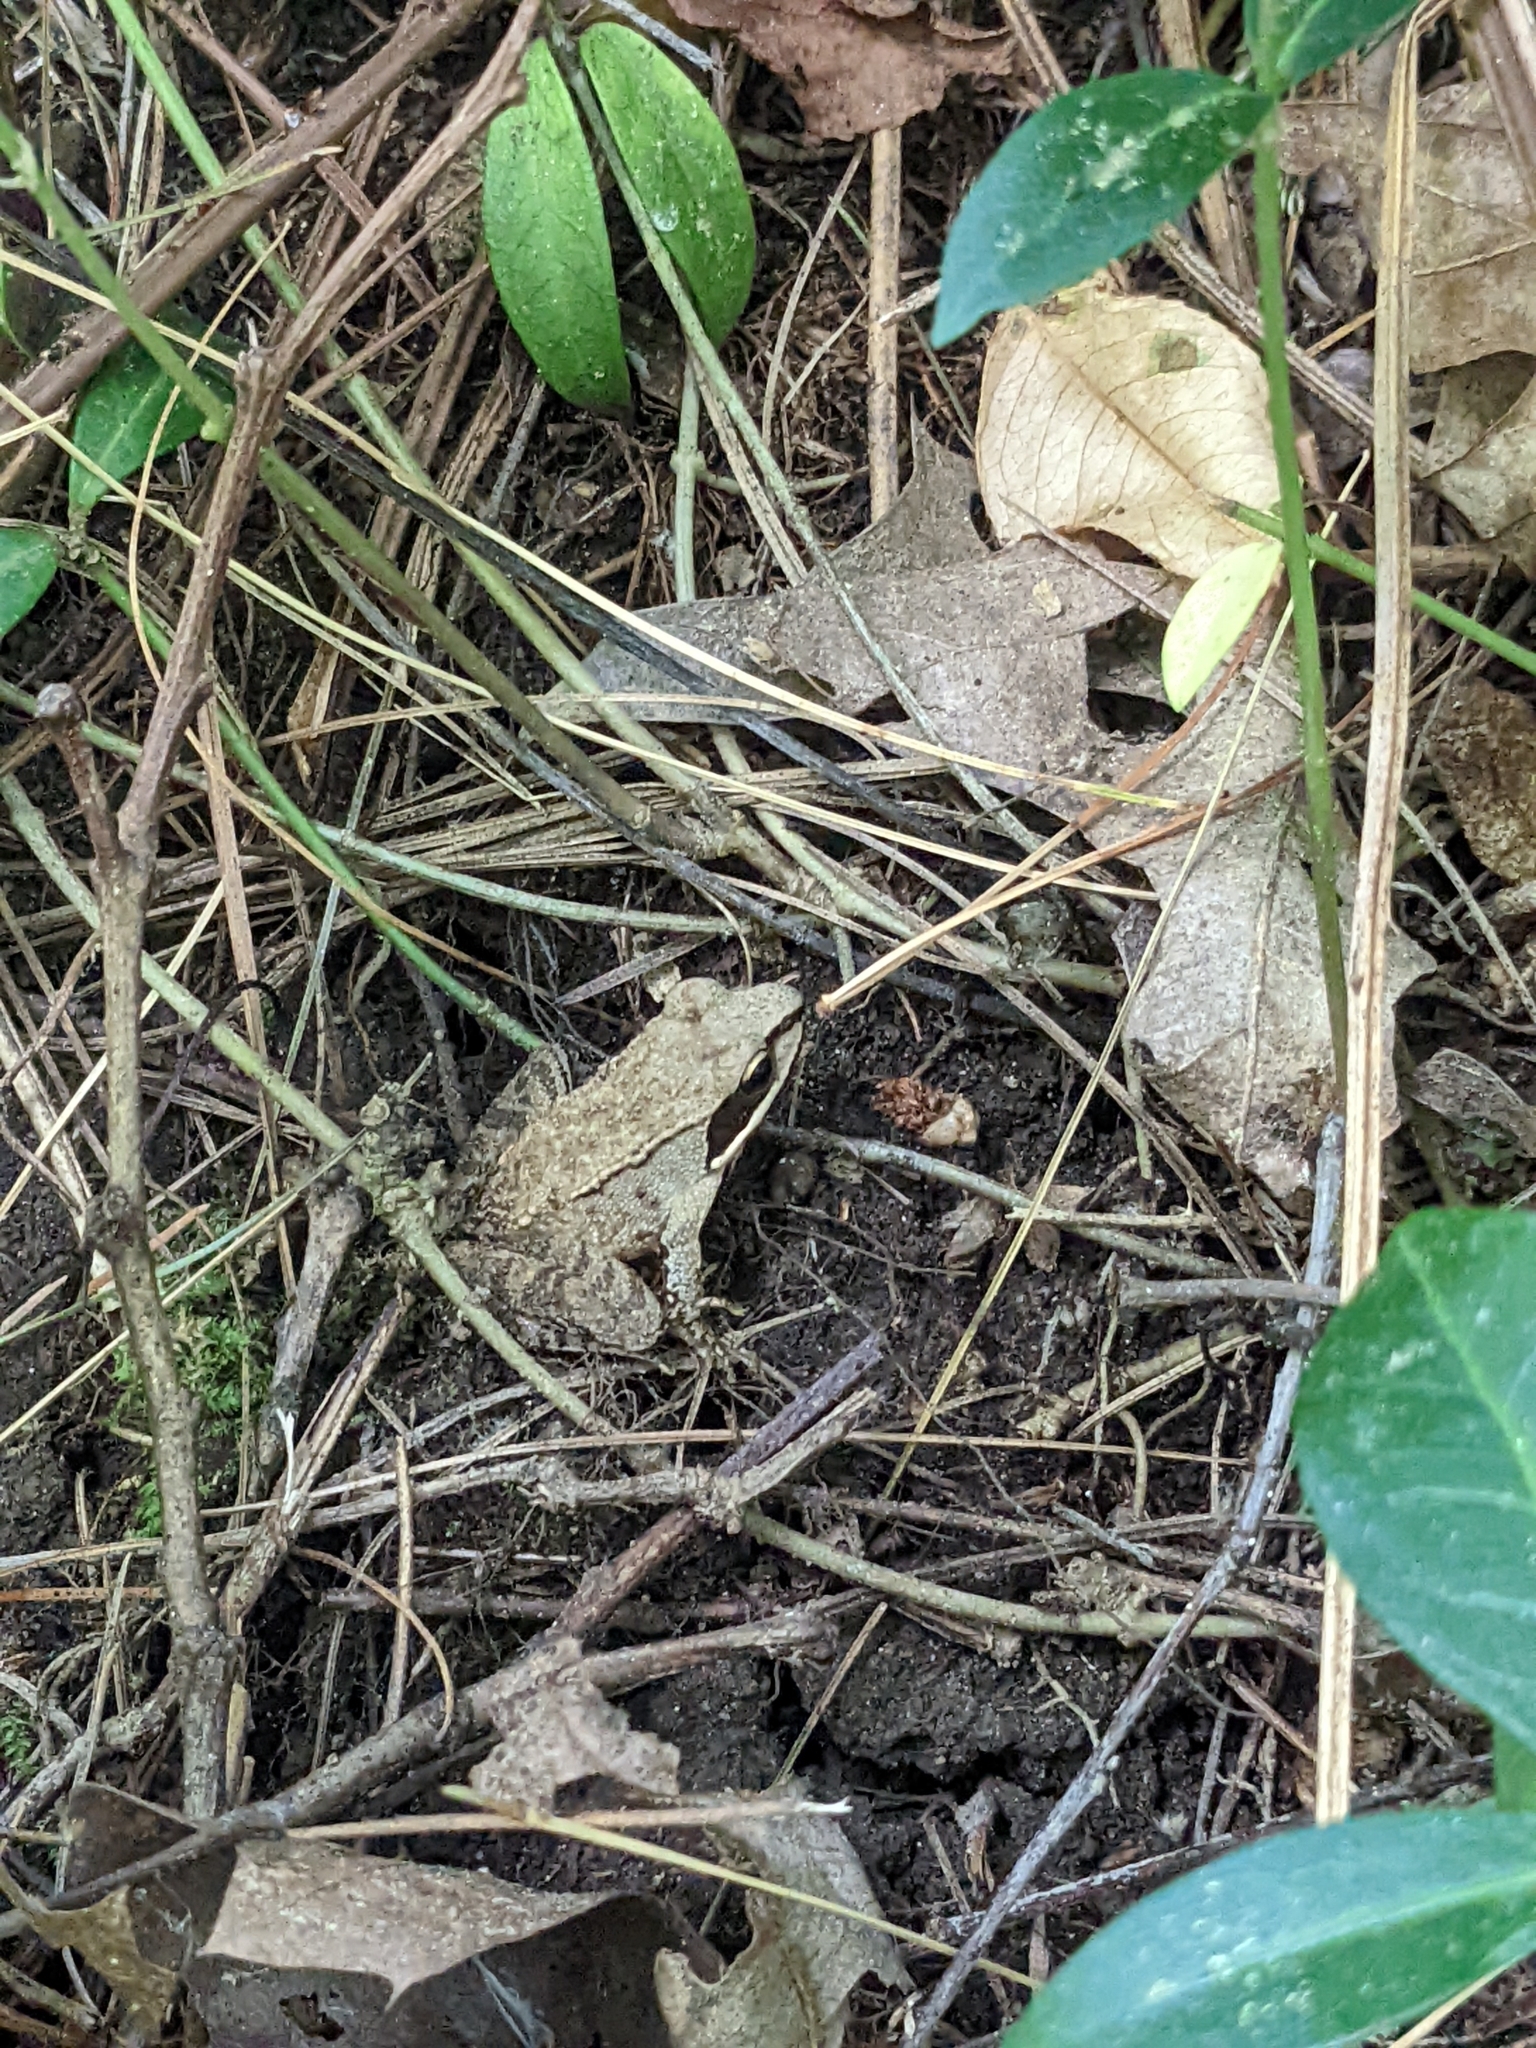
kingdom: Animalia
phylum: Chordata
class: Amphibia
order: Anura
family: Ranidae
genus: Lithobates
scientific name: Lithobates sylvaticus
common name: Wood frog
